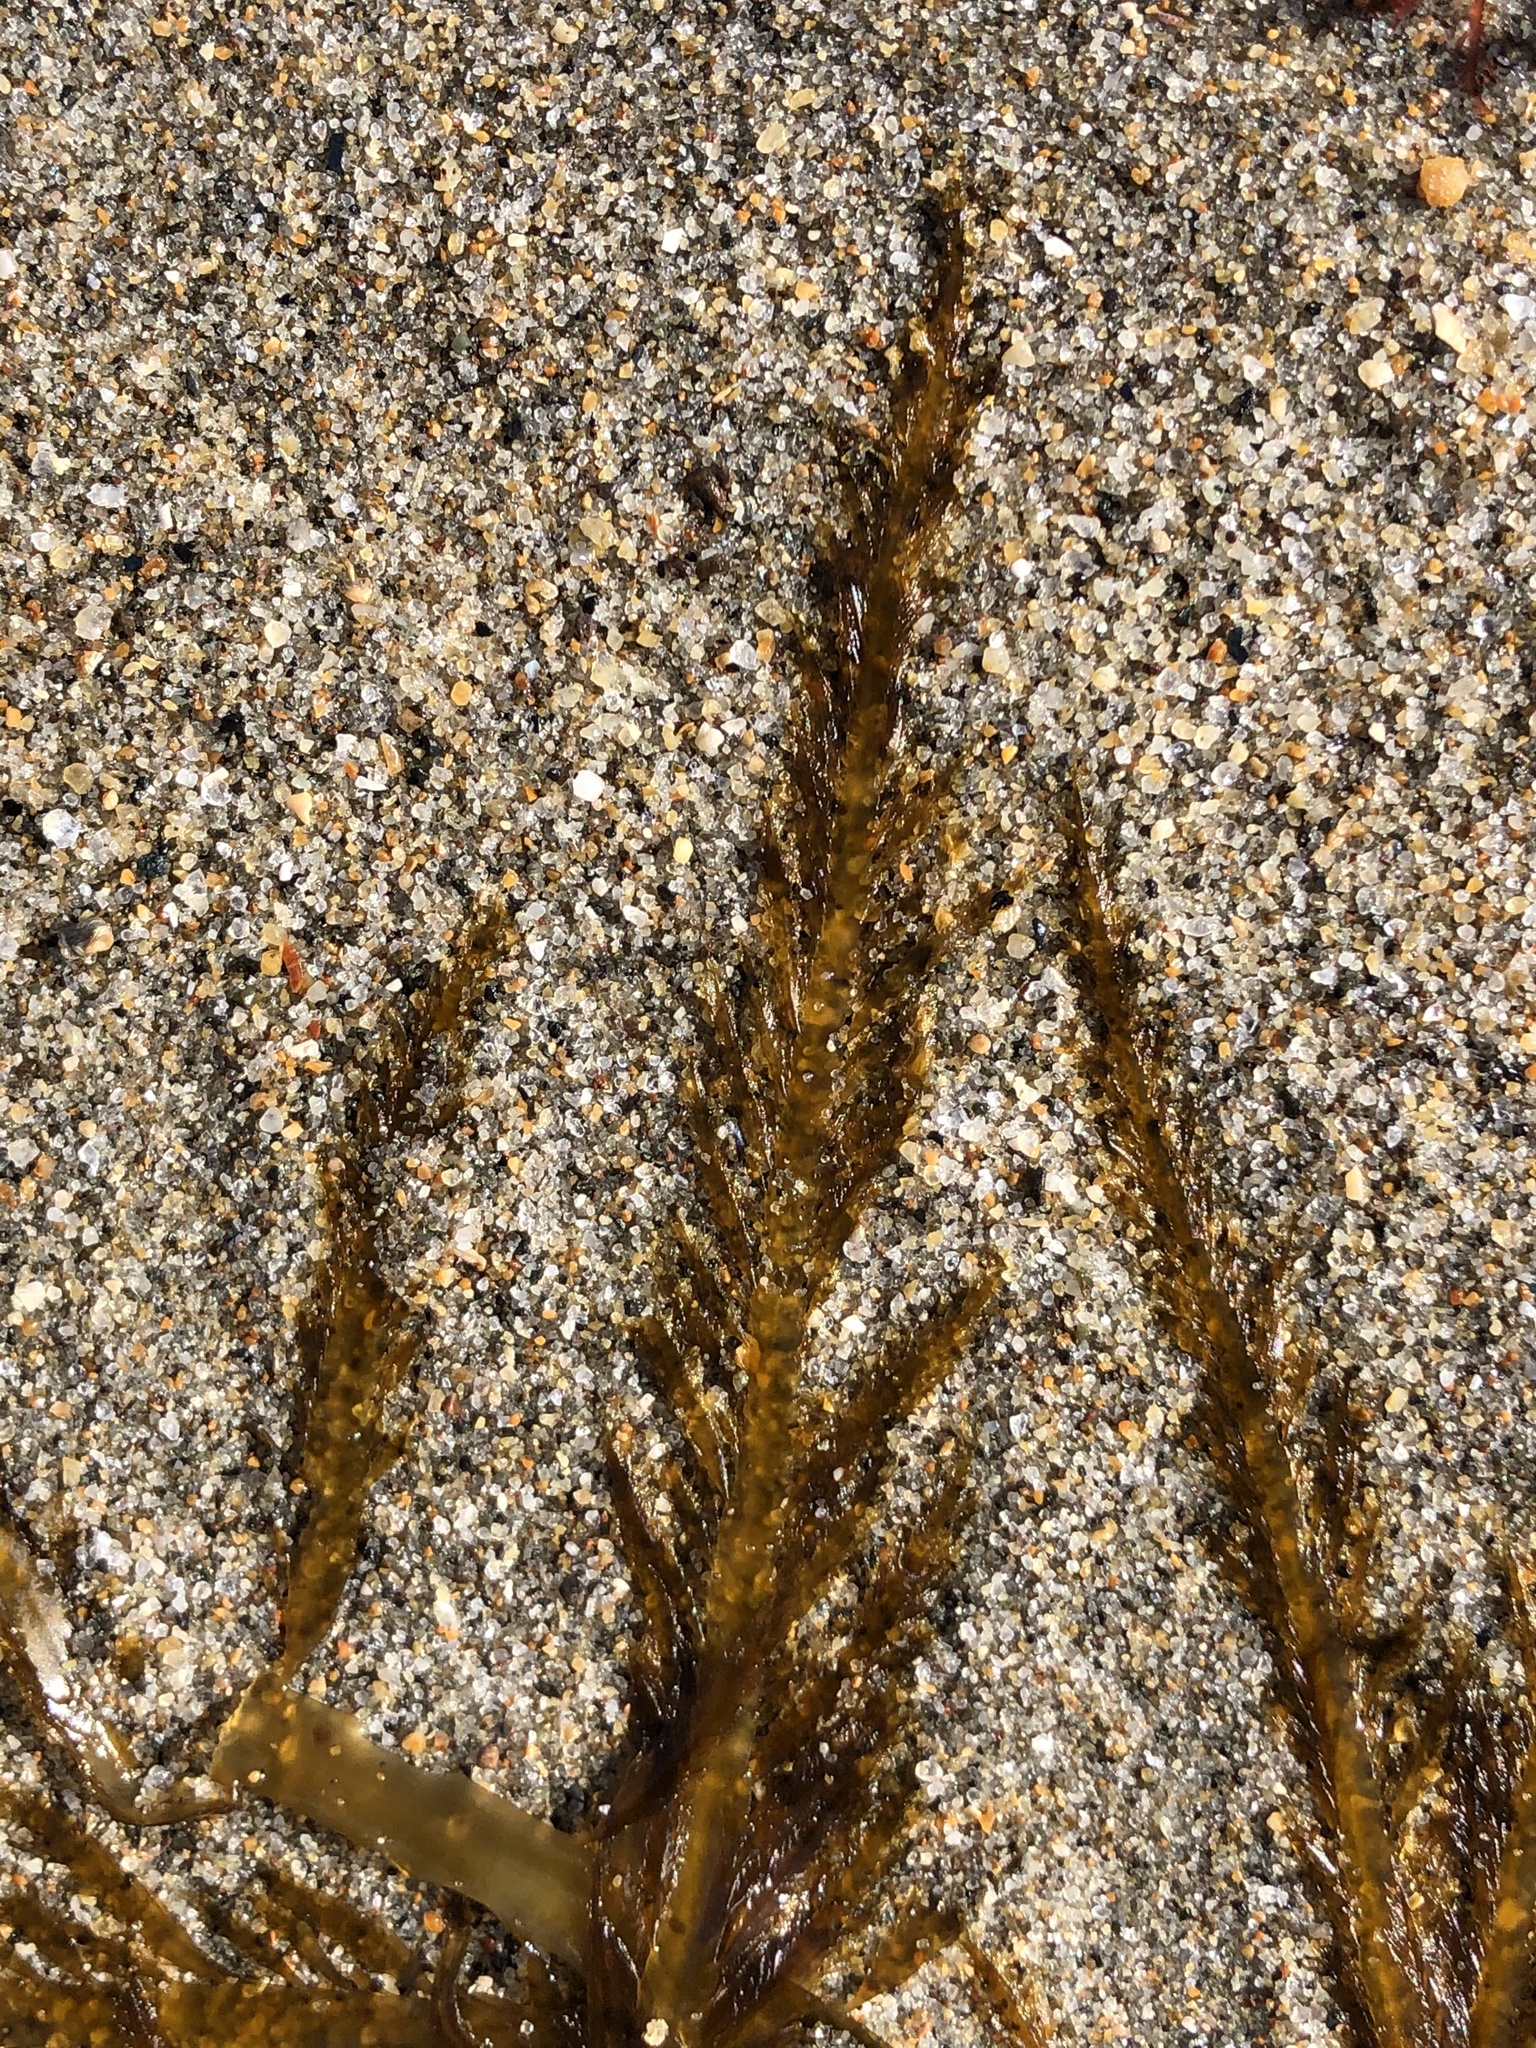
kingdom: Chromista
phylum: Ochrophyta
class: Phaeophyceae
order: Desmarestiales
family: Desmarestiaceae
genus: Desmarestia
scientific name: Desmarestia ligulata
